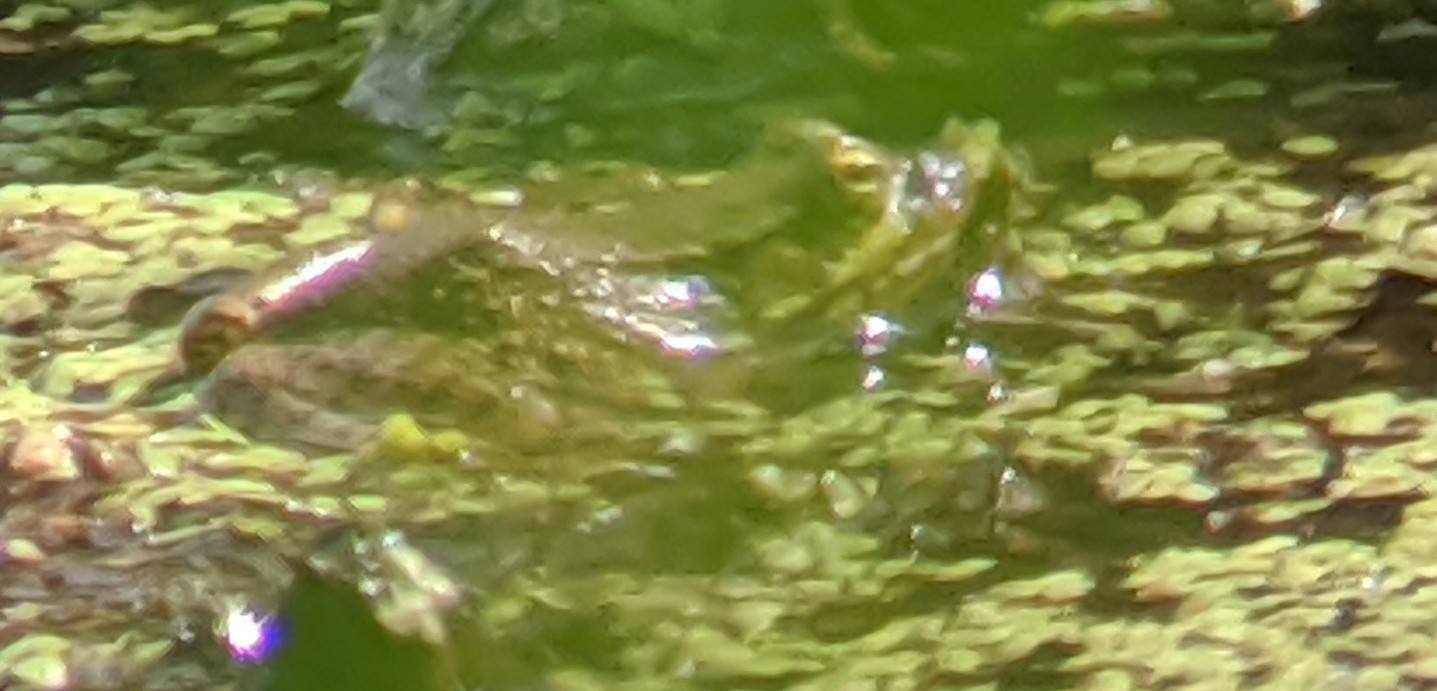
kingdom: Animalia
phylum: Chordata
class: Amphibia
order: Anura
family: Ranidae
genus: Lithobates
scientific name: Lithobates clamitans
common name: Green frog
